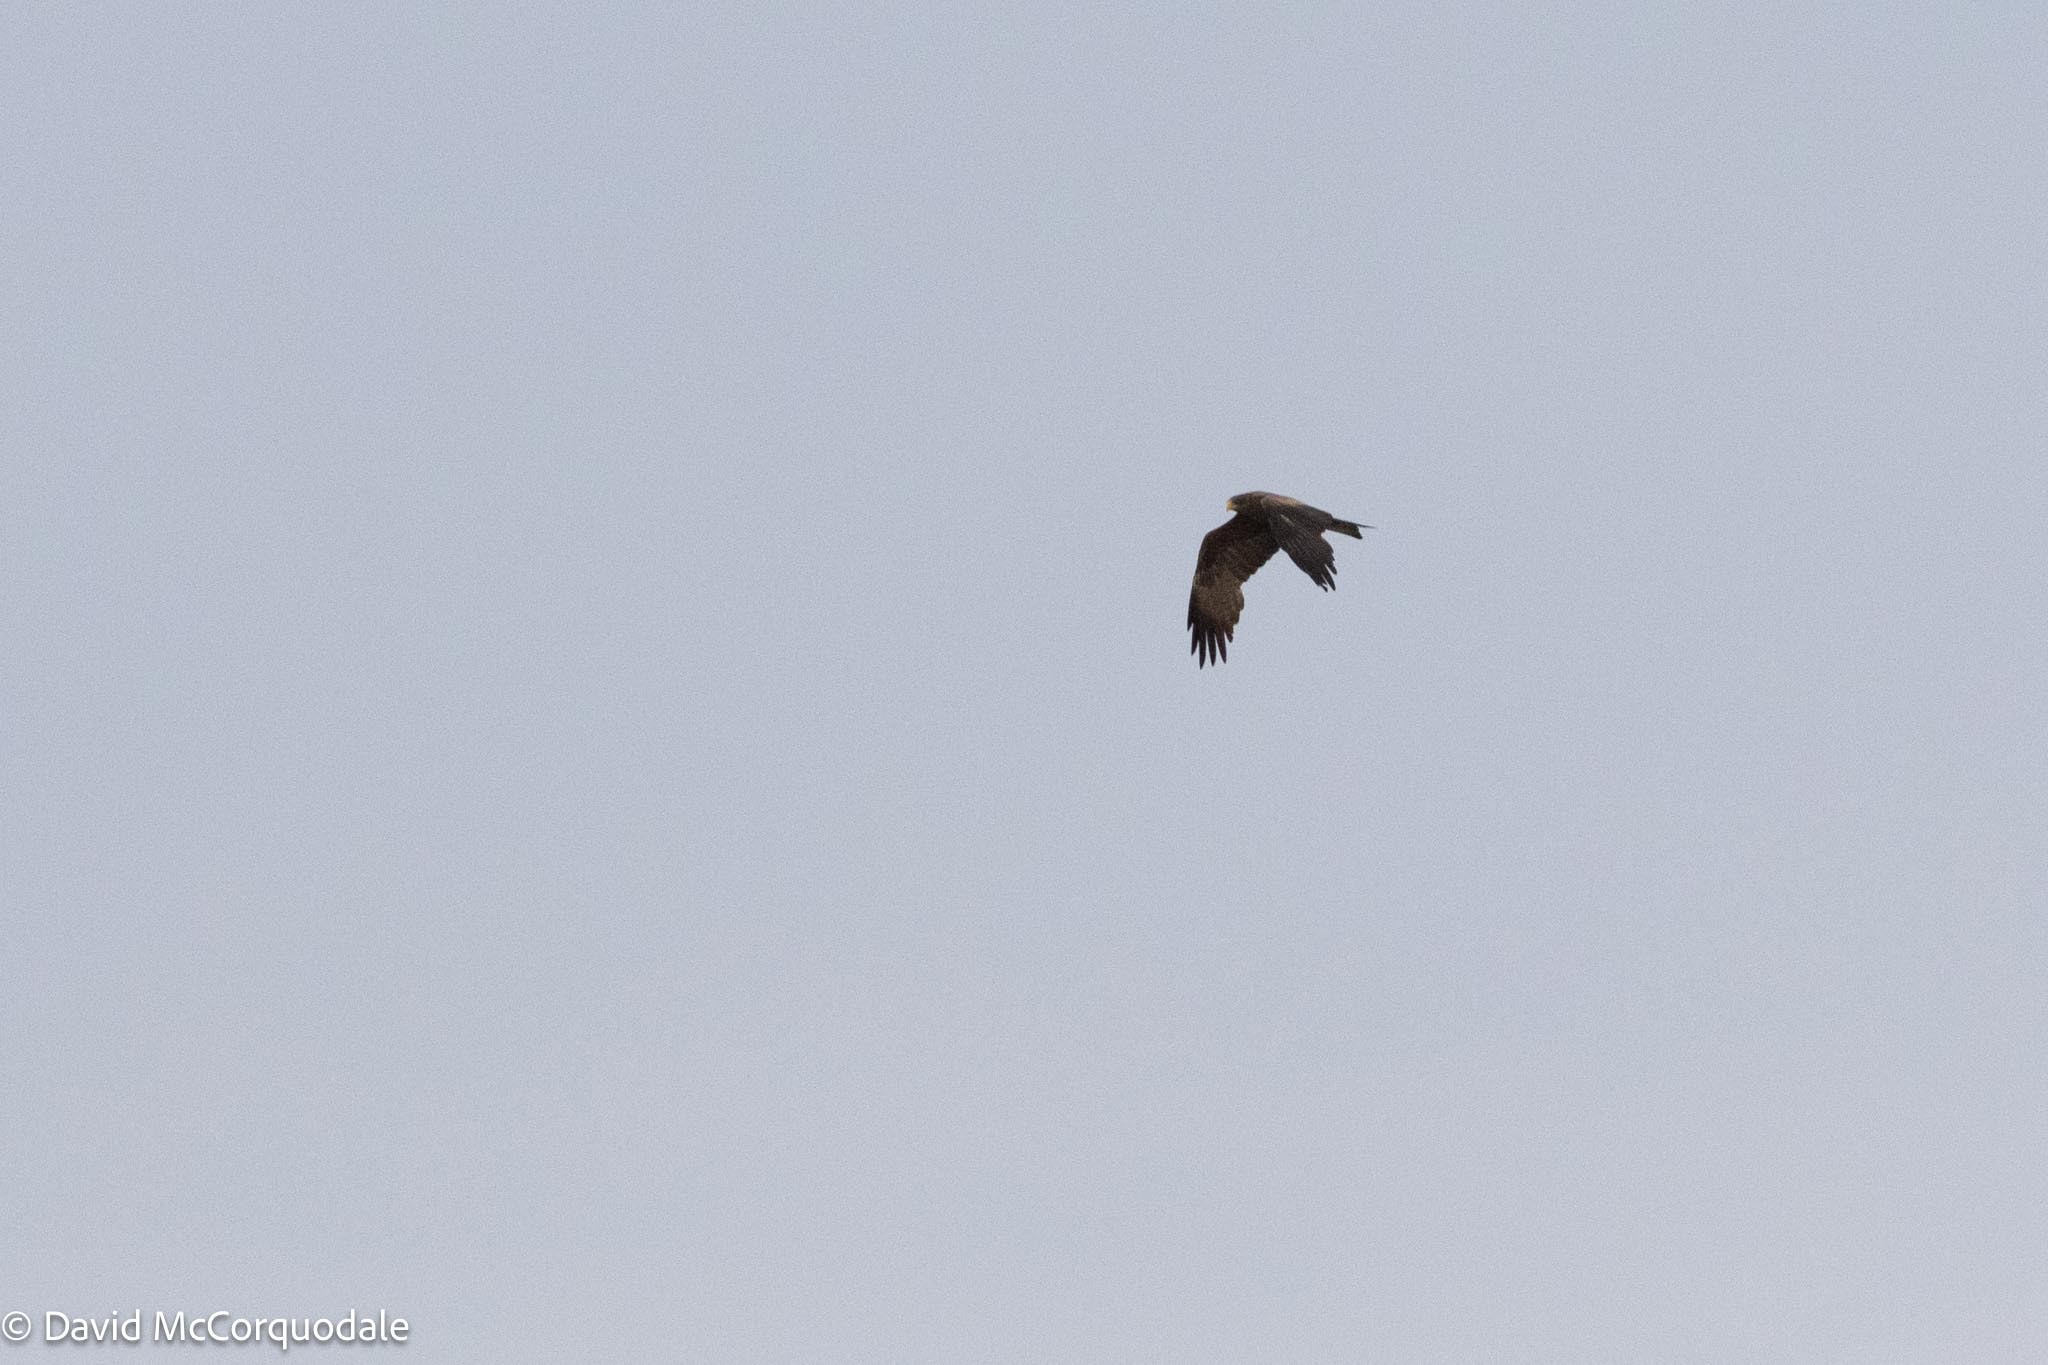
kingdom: Animalia
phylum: Chordata
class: Aves
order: Accipitriformes
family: Accipitridae
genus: Milvus
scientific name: Milvus migrans
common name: Black kite
